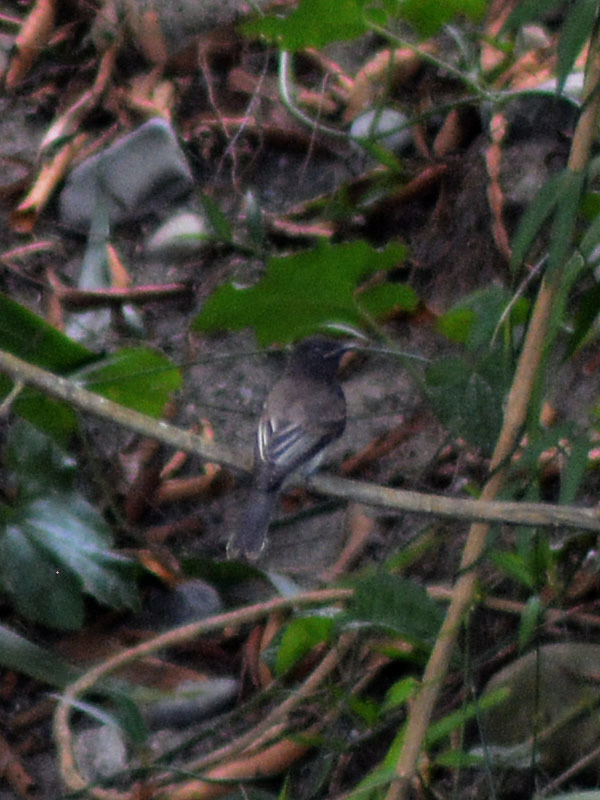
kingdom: Animalia
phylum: Chordata
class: Aves
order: Passeriformes
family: Tyrannidae
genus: Sayornis
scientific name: Sayornis nigricans
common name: Black phoebe
